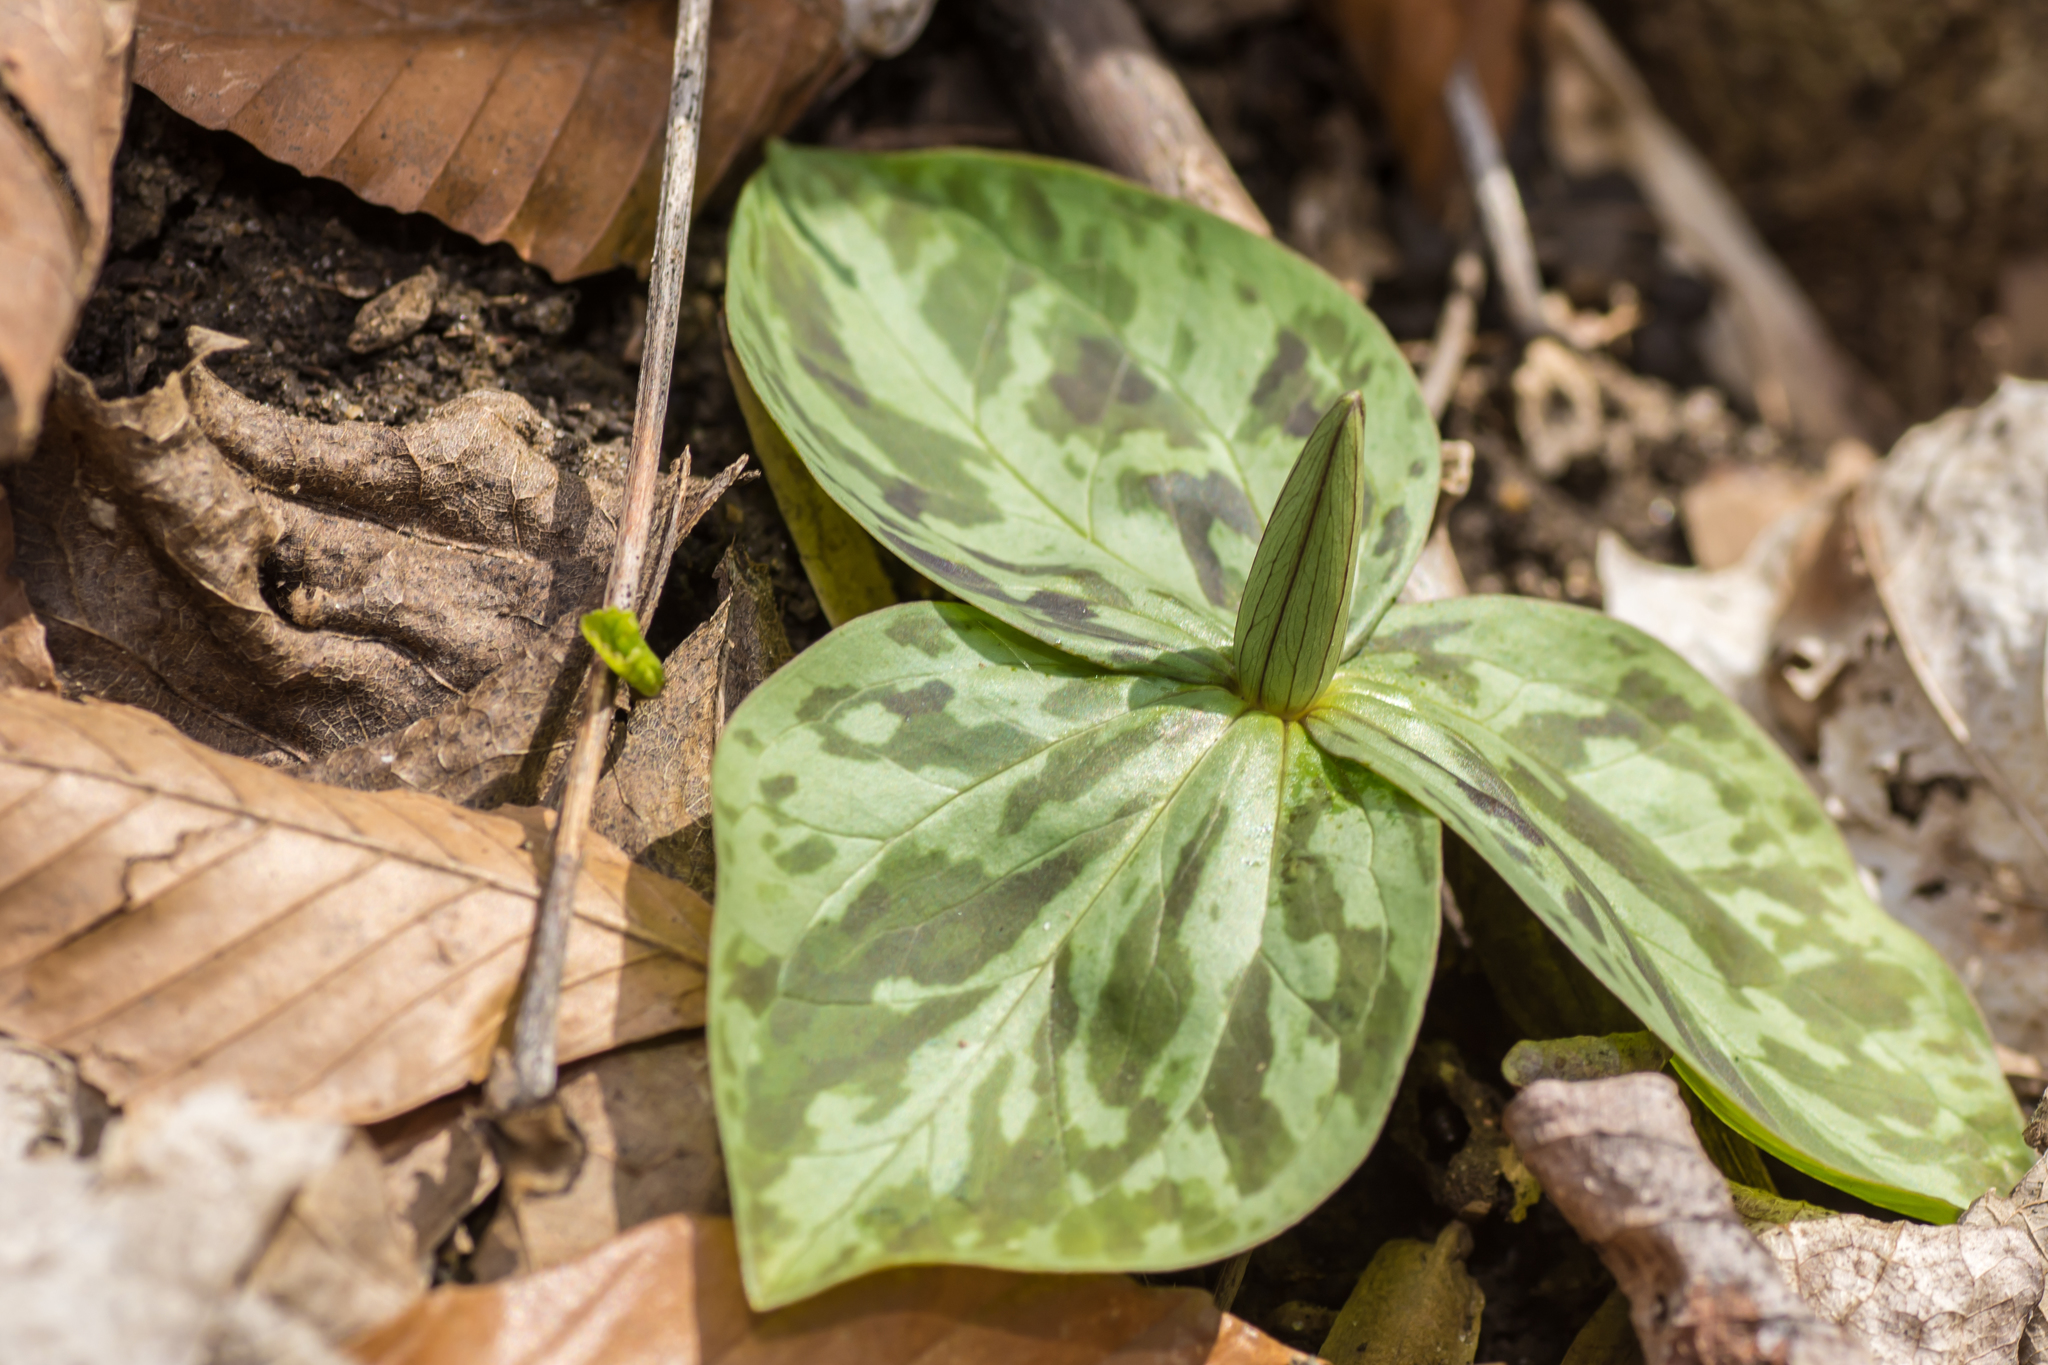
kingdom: Plantae
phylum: Tracheophyta
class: Liliopsida
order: Liliales
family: Melanthiaceae
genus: Trillium
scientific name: Trillium sessile
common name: Sessile trillium
